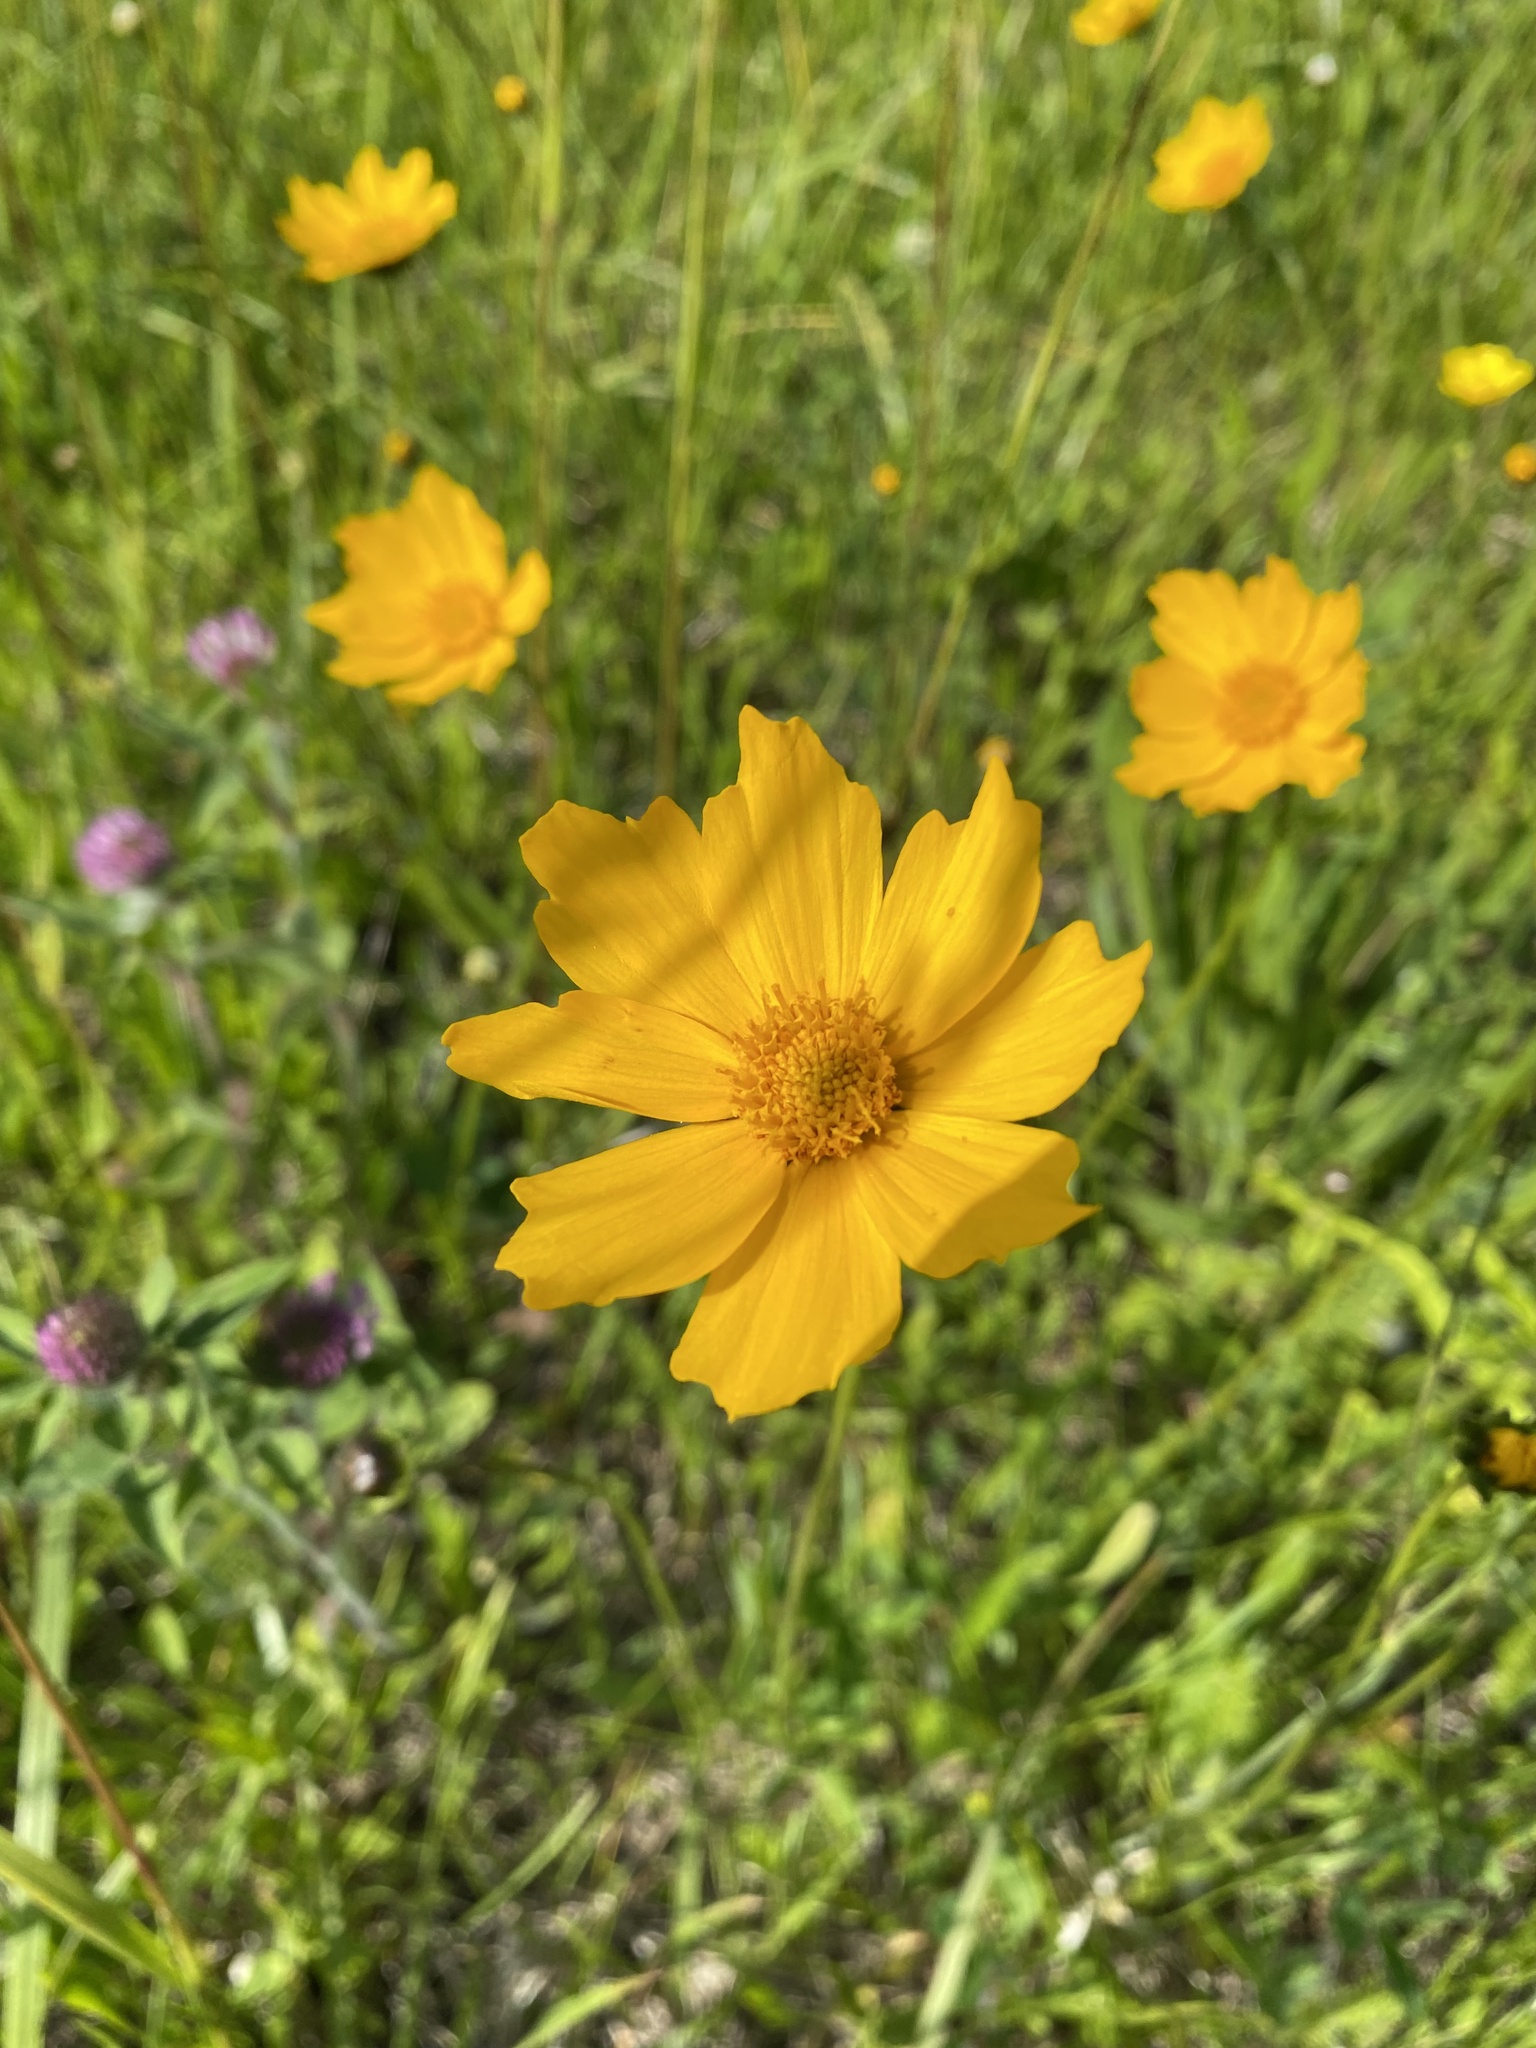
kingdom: Plantae
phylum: Tracheophyta
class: Magnoliopsida
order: Asterales
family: Asteraceae
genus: Coreopsis
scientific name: Coreopsis lanceolata
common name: Garden coreopsis
